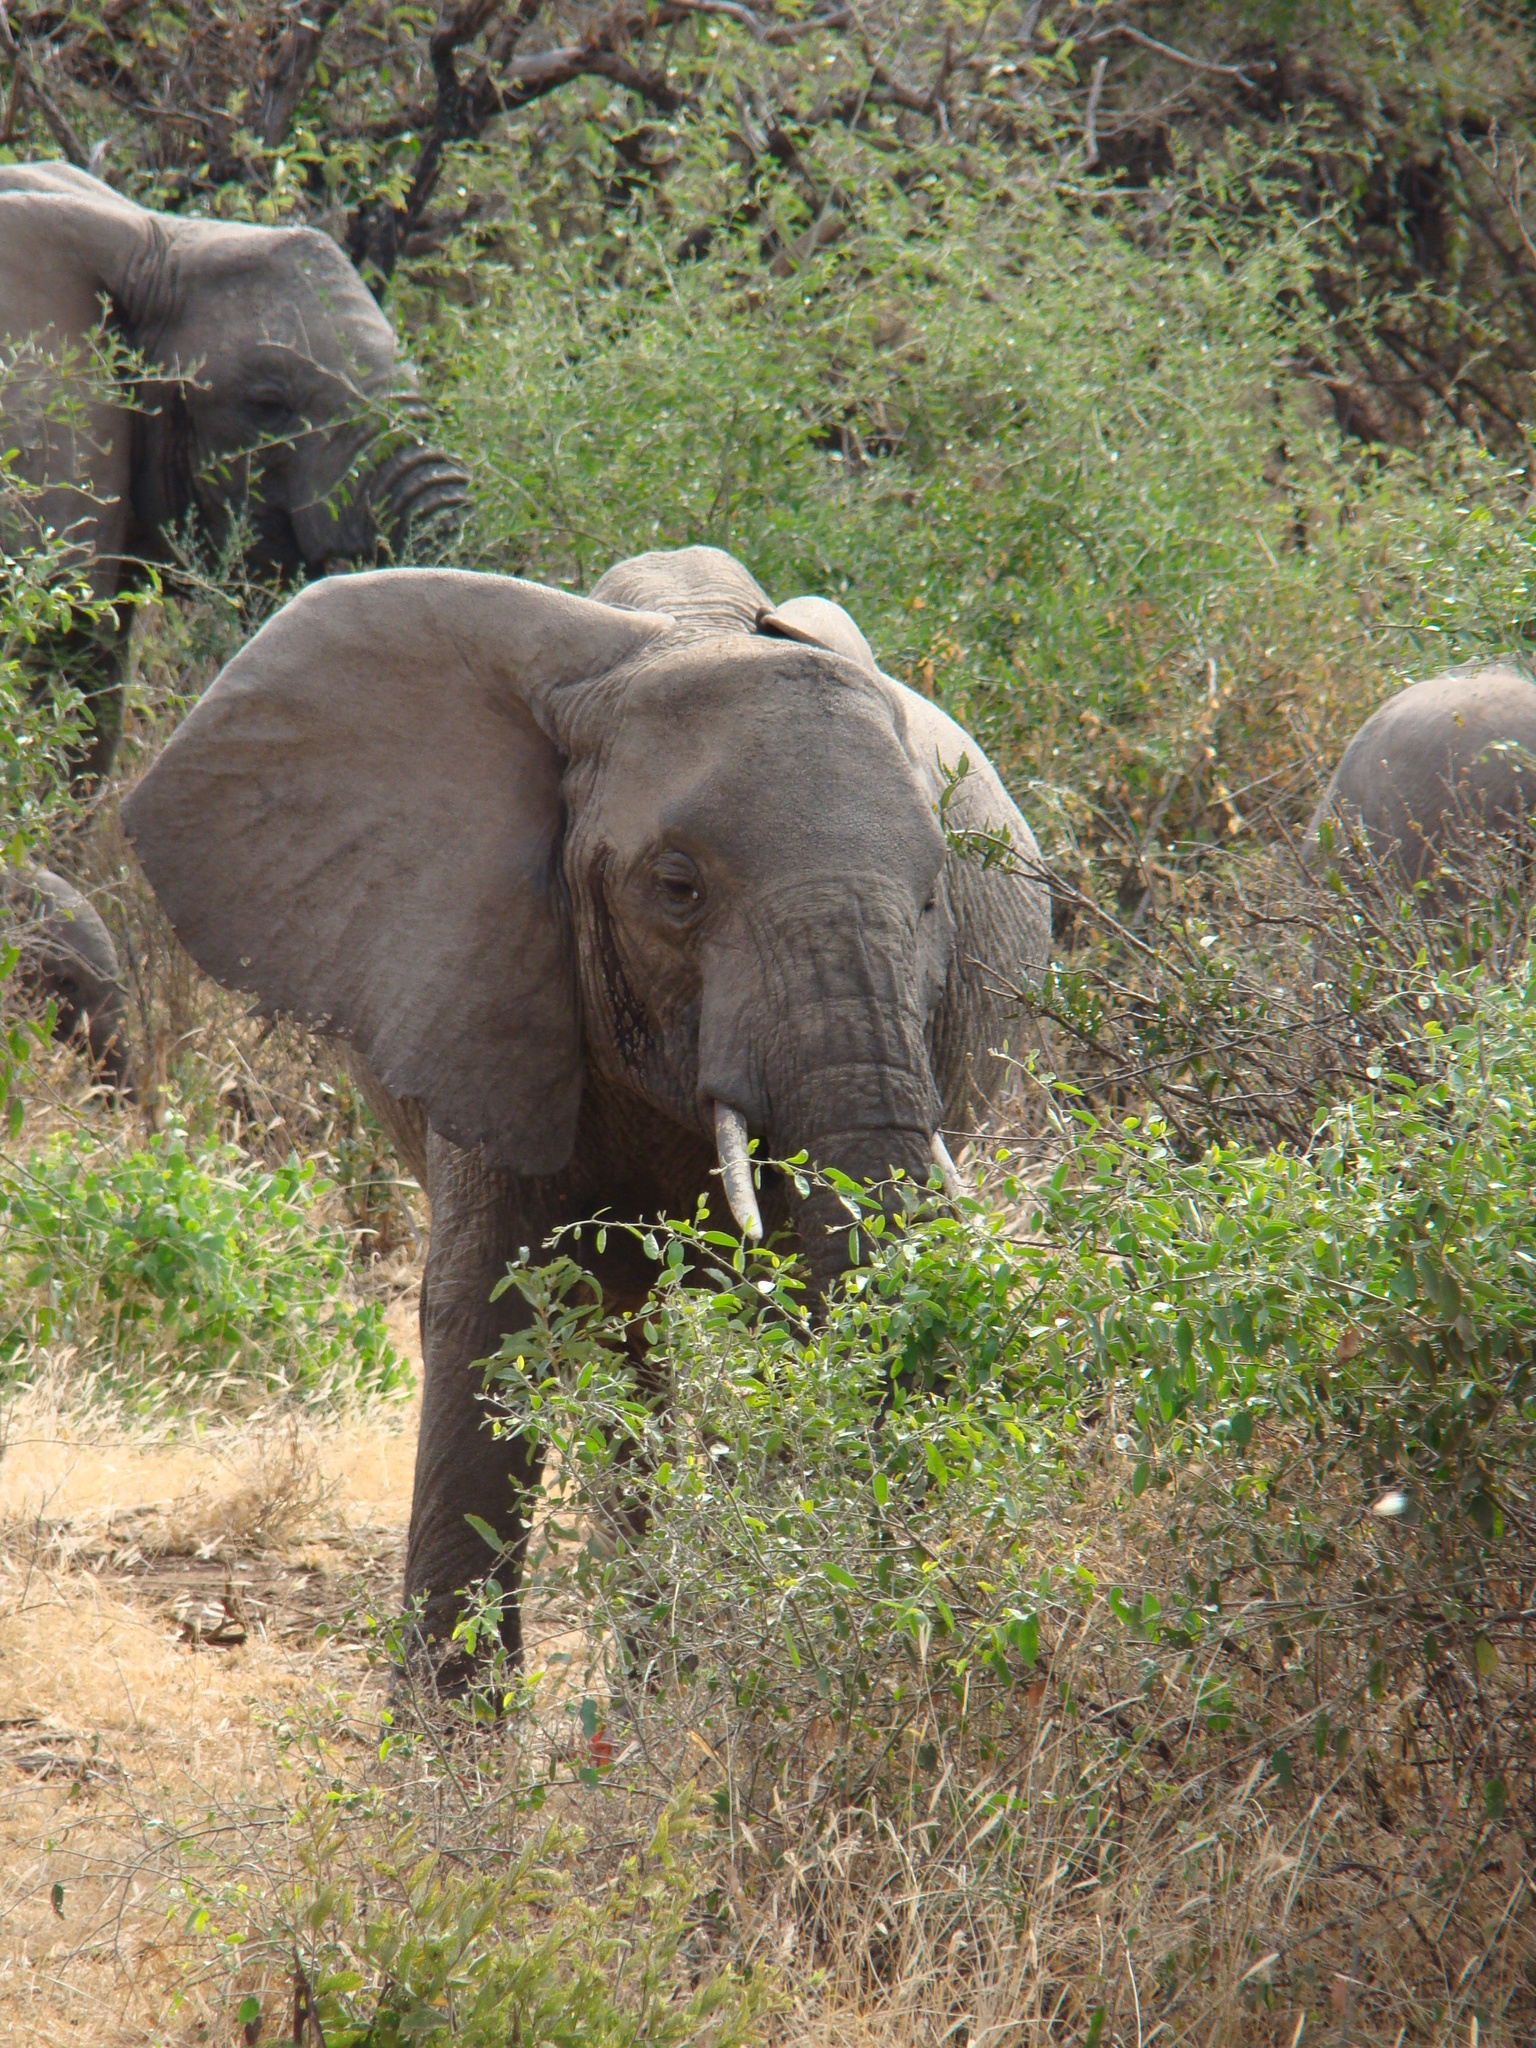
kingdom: Animalia
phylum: Chordata
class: Mammalia
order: Proboscidea
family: Elephantidae
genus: Loxodonta
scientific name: Loxodonta africana
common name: African elephant
